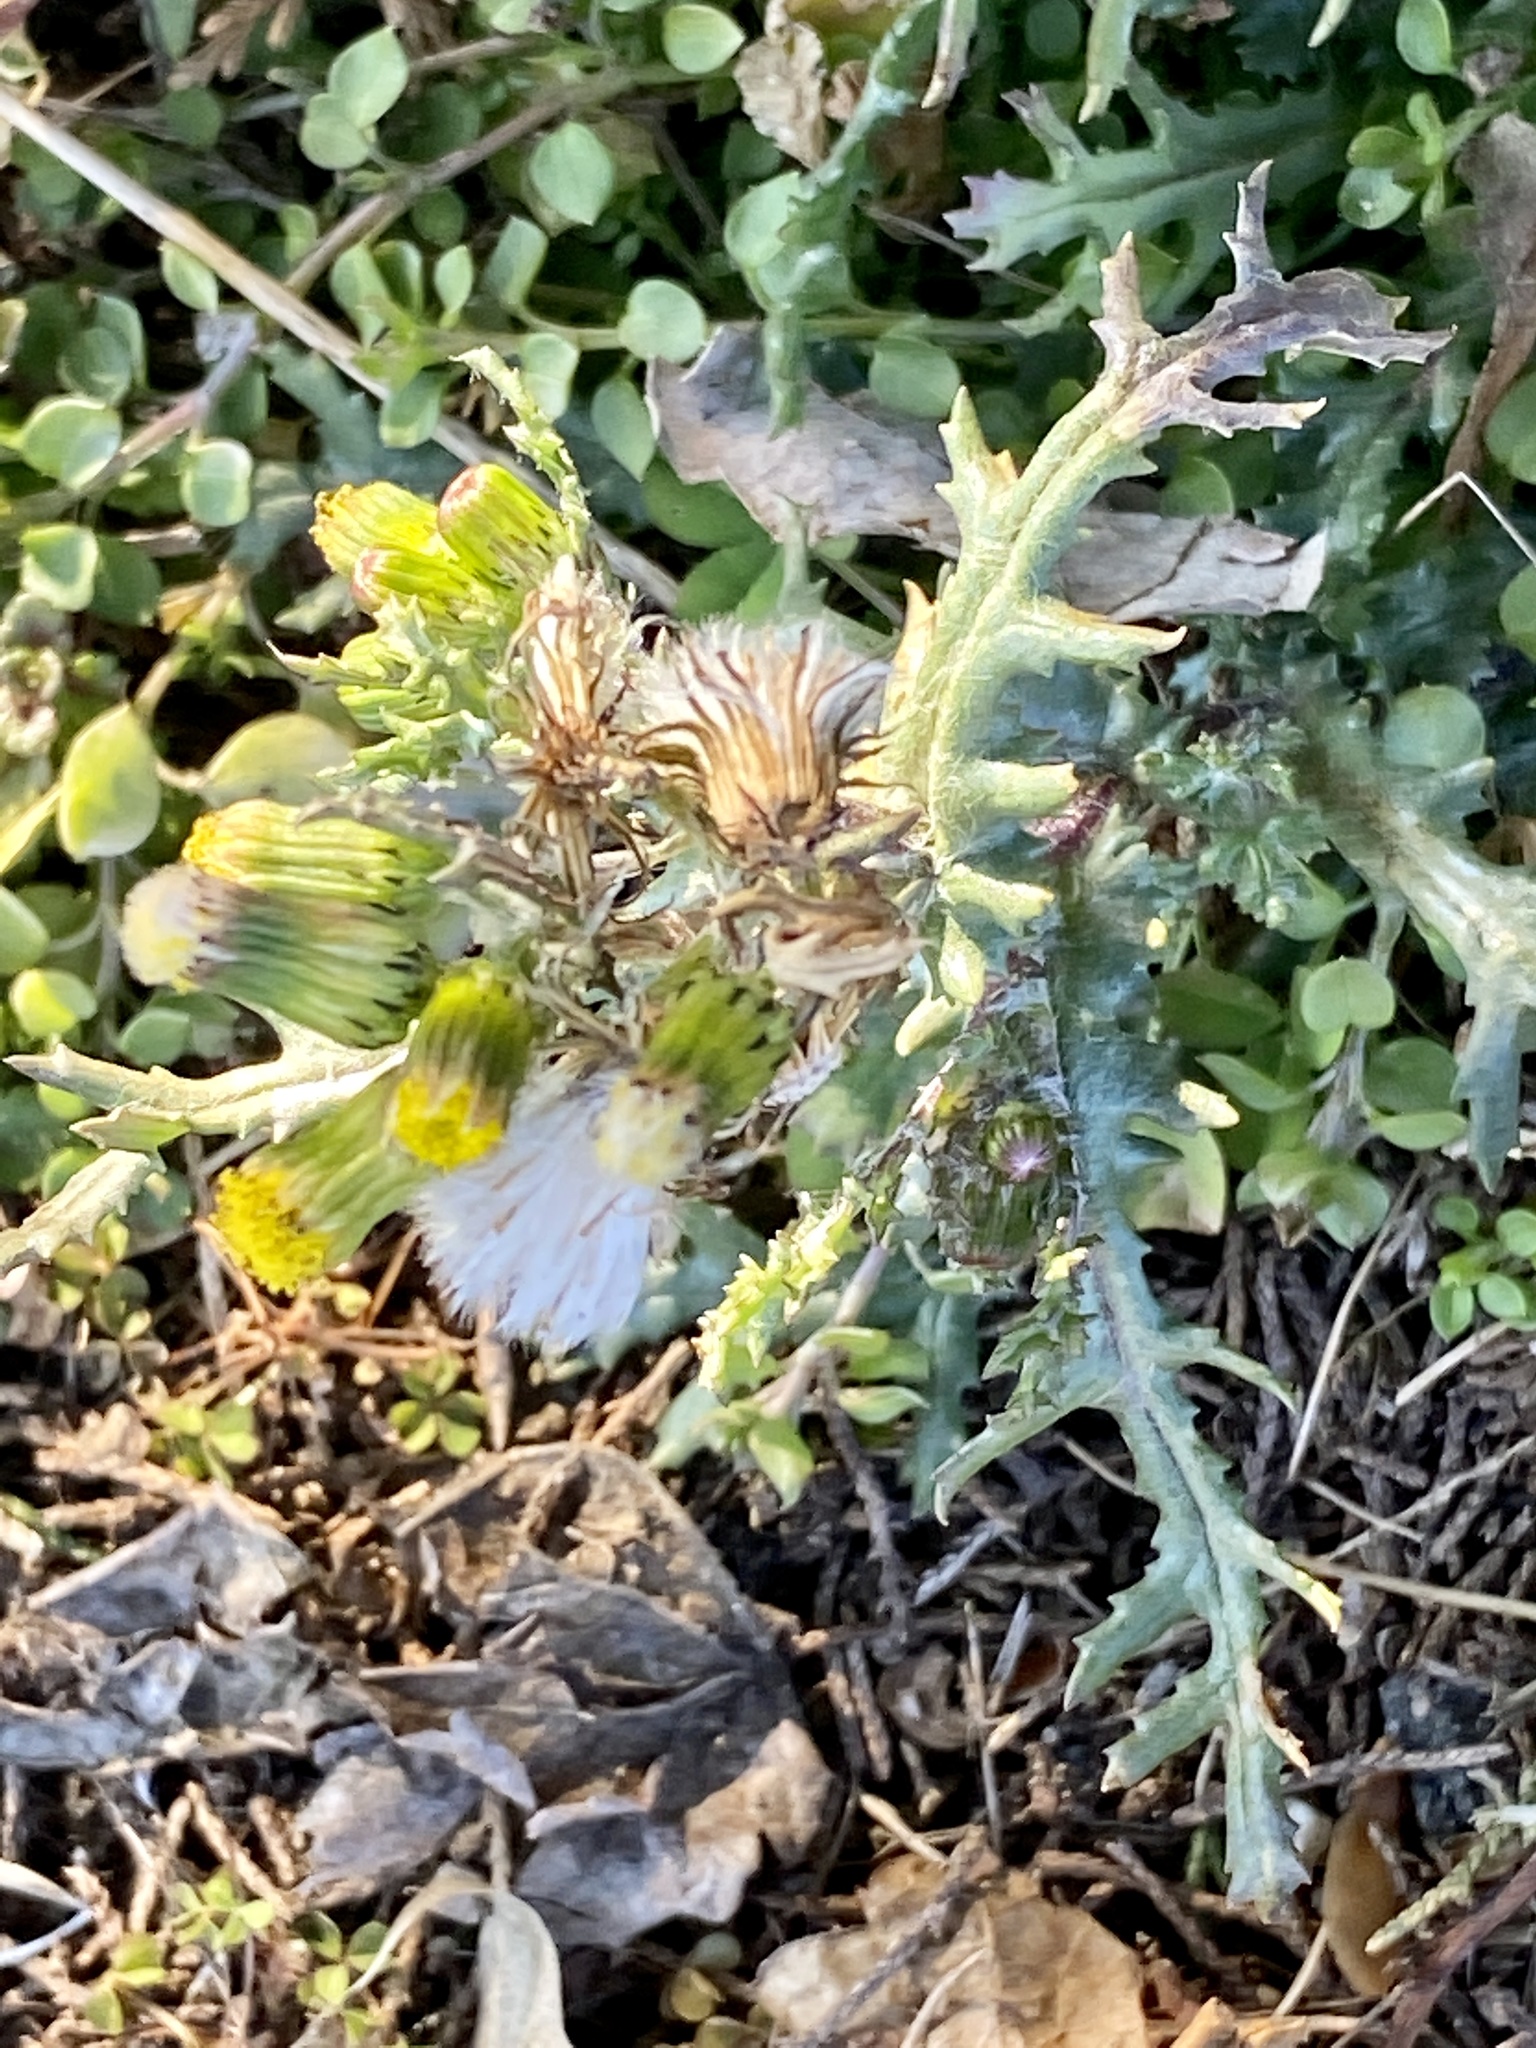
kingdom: Plantae
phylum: Tracheophyta
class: Magnoliopsida
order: Asterales
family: Asteraceae
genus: Senecio
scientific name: Senecio vulgaris
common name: Old-man-in-the-spring
